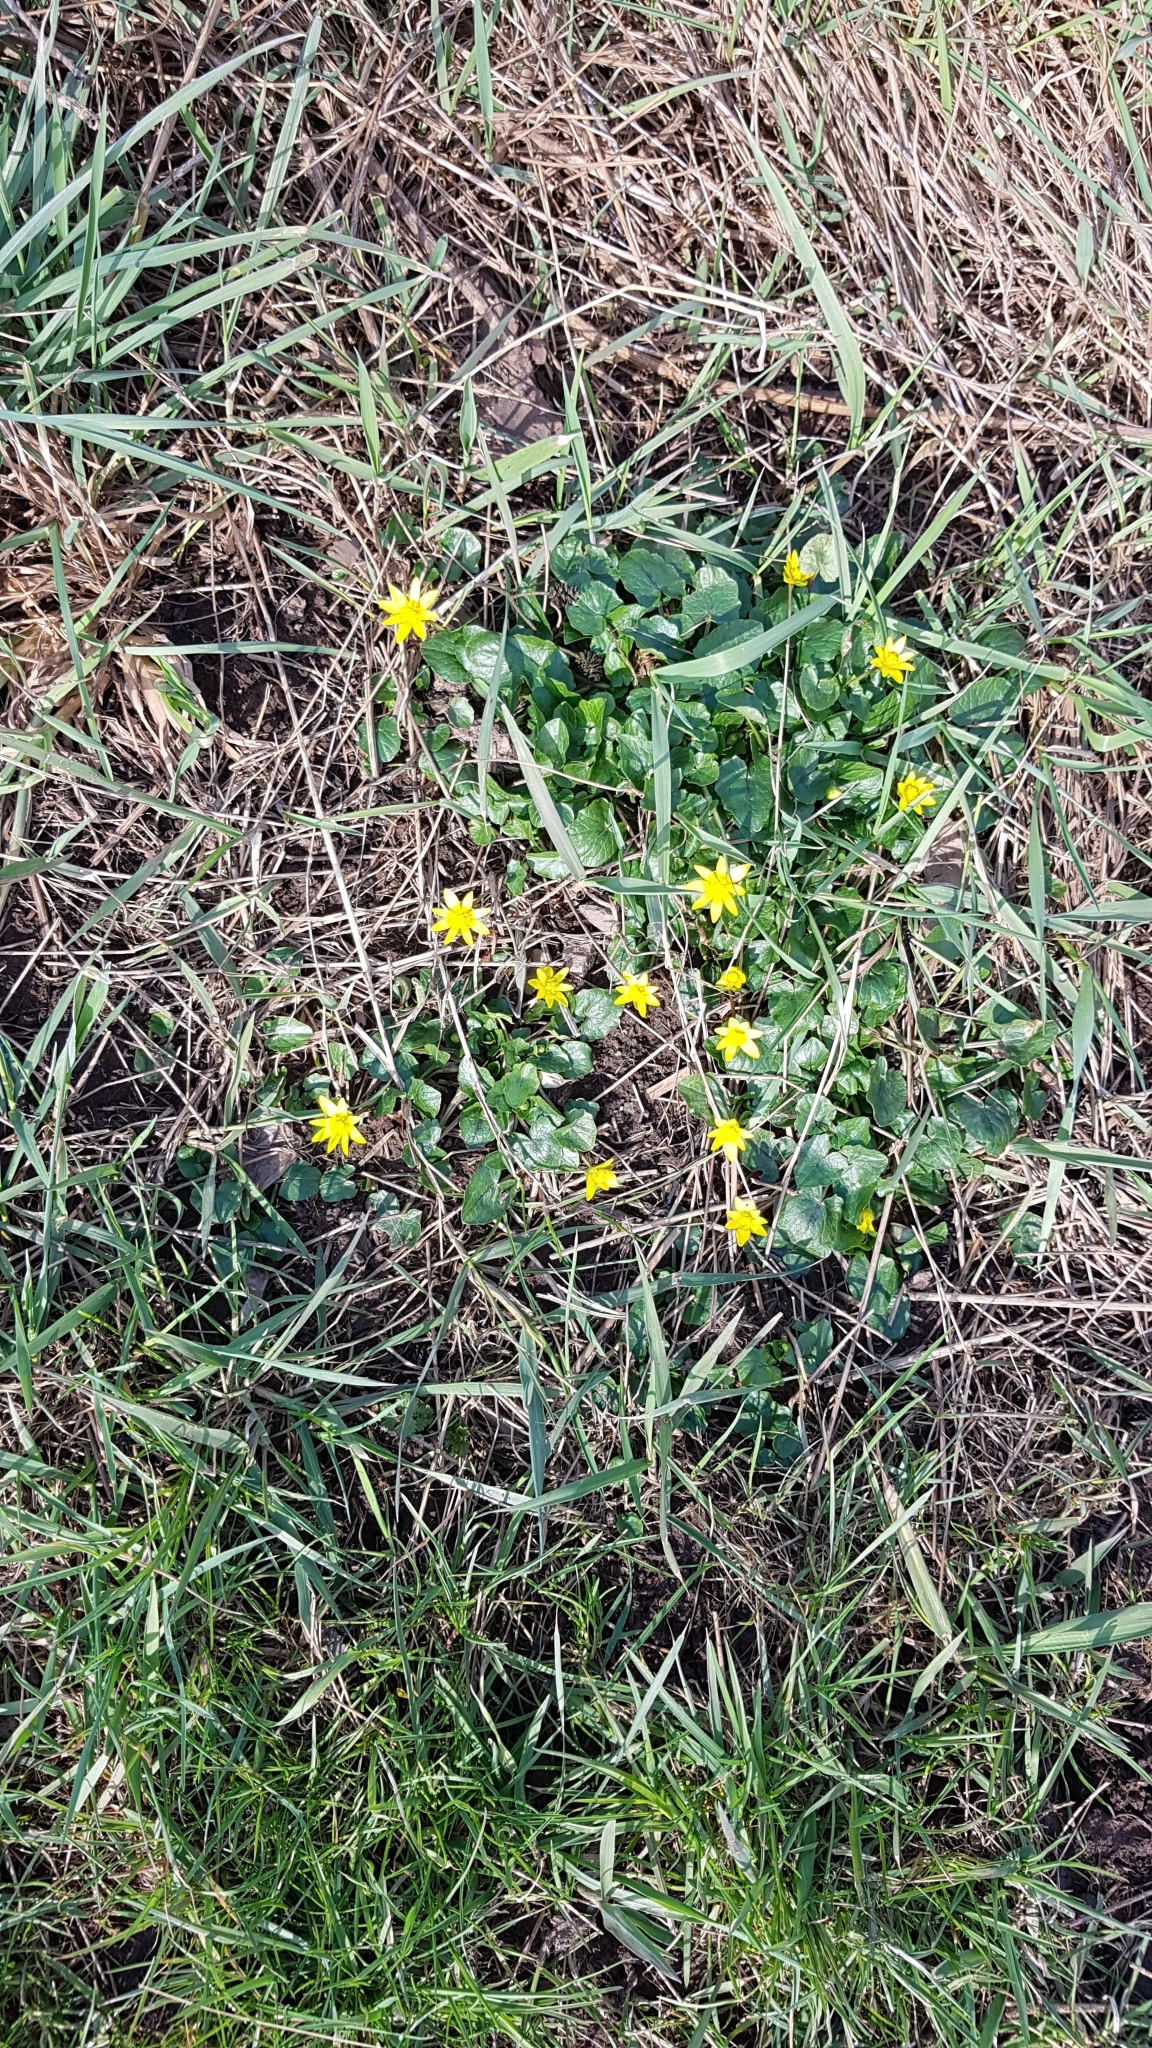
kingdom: Plantae
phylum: Tracheophyta
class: Magnoliopsida
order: Ranunculales
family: Ranunculaceae
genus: Ficaria
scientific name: Ficaria verna
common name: Lesser celandine
